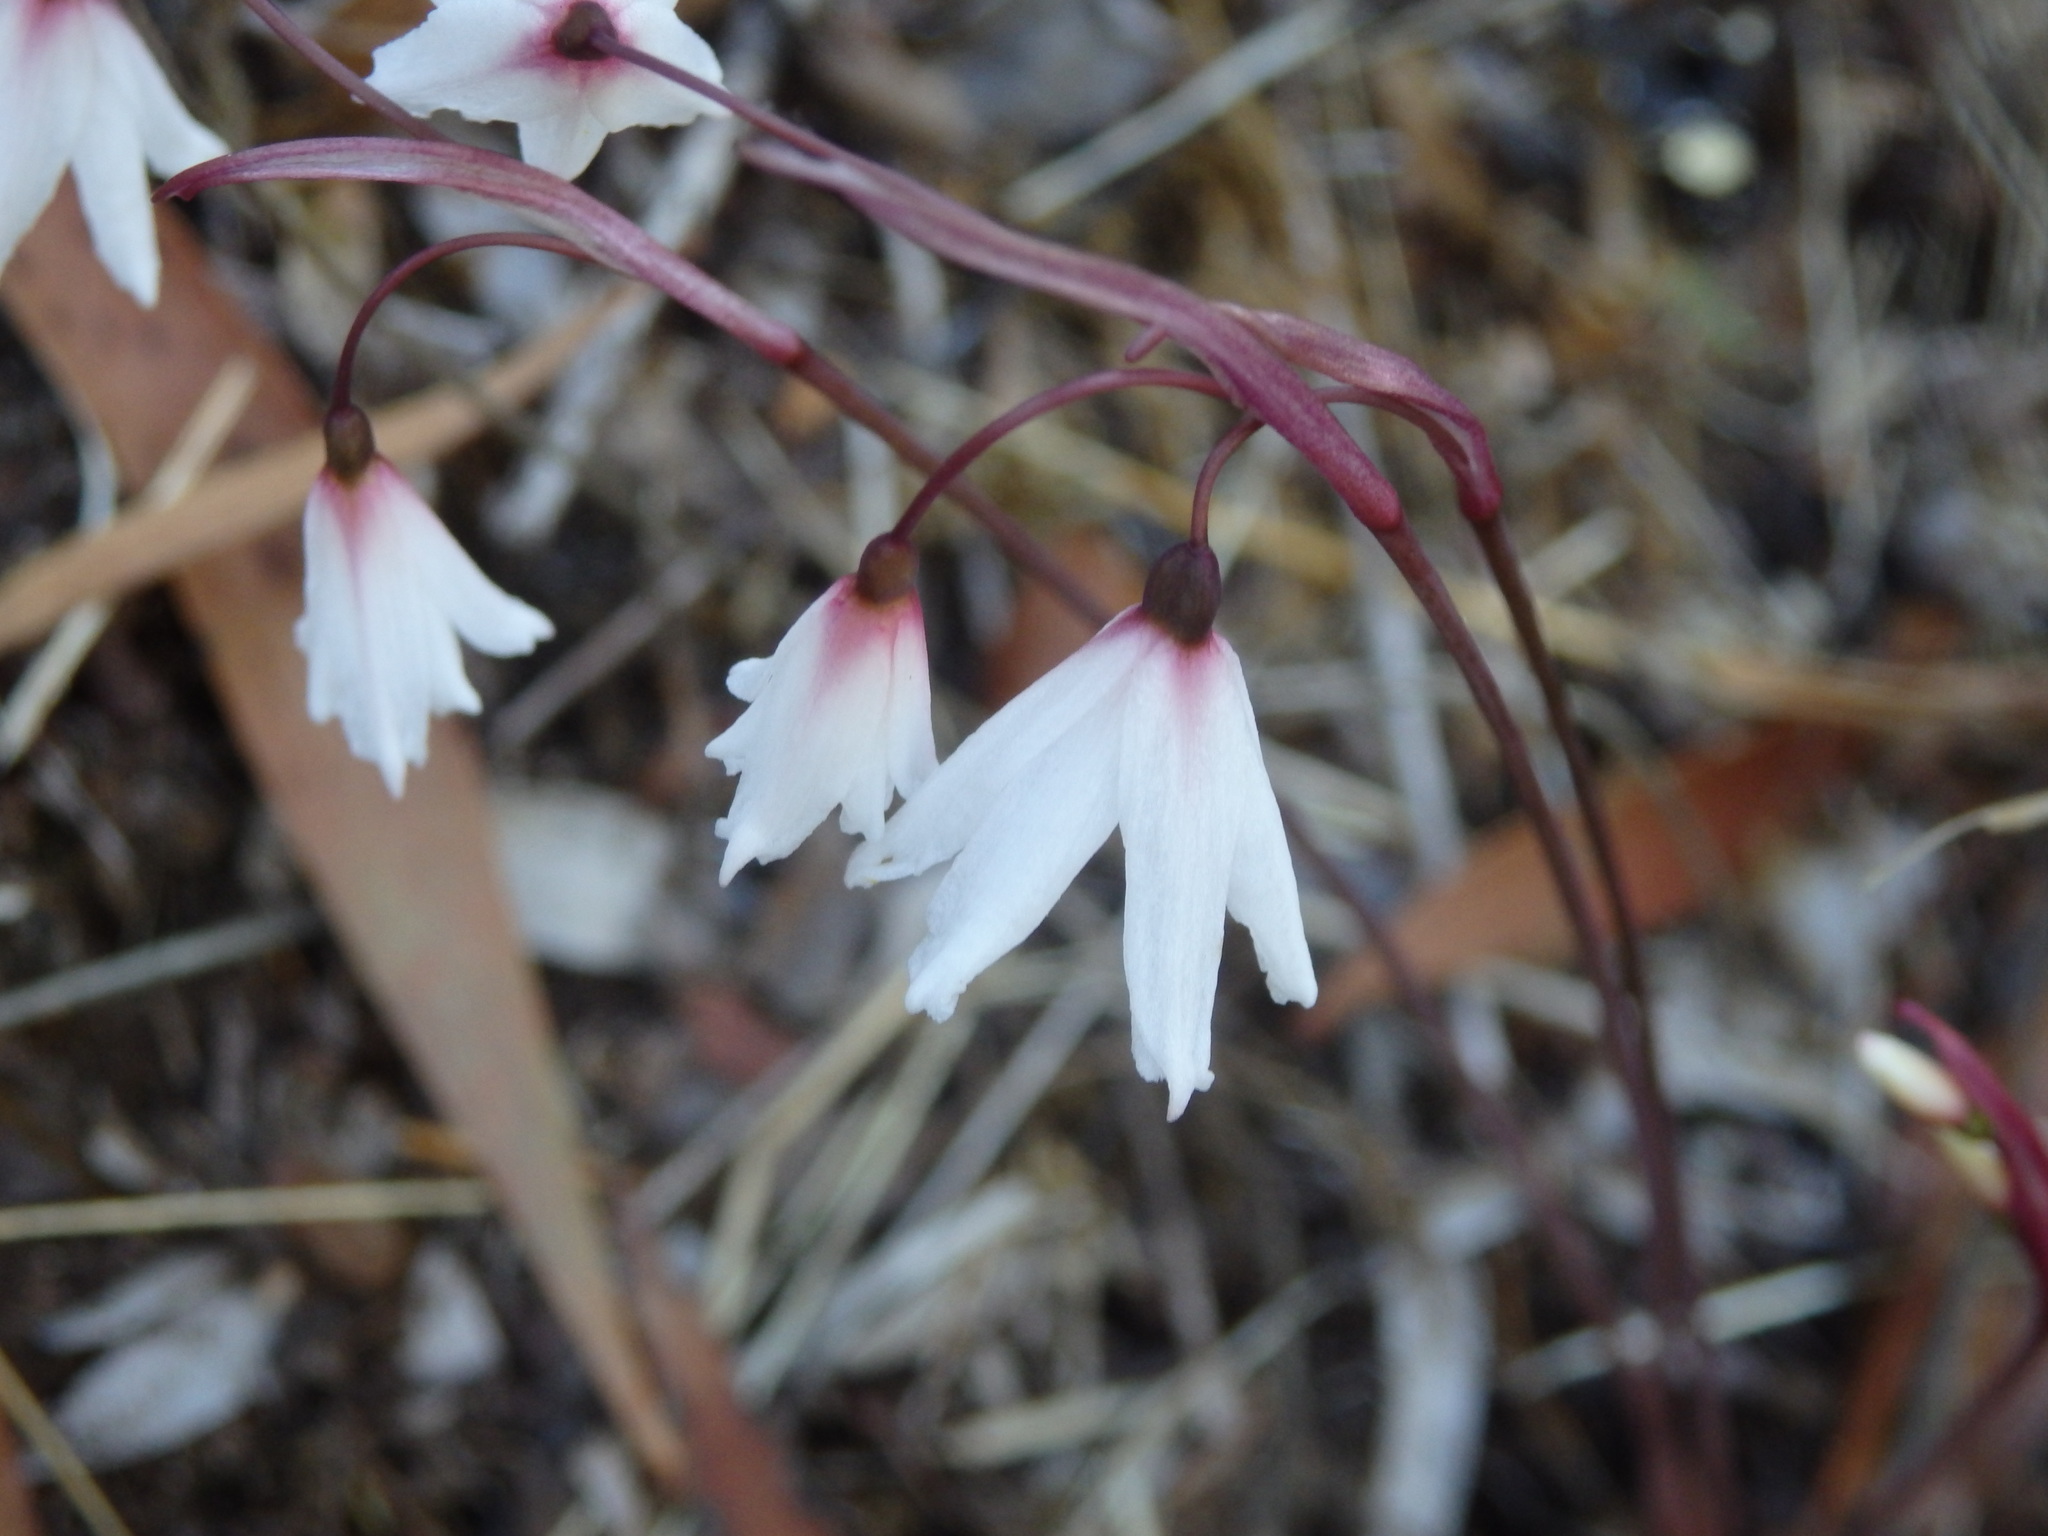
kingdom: Plantae
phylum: Tracheophyta
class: Liliopsida
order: Asparagales
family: Amaryllidaceae
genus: Acis
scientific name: Acis autumnalis
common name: Autumn snowflake
